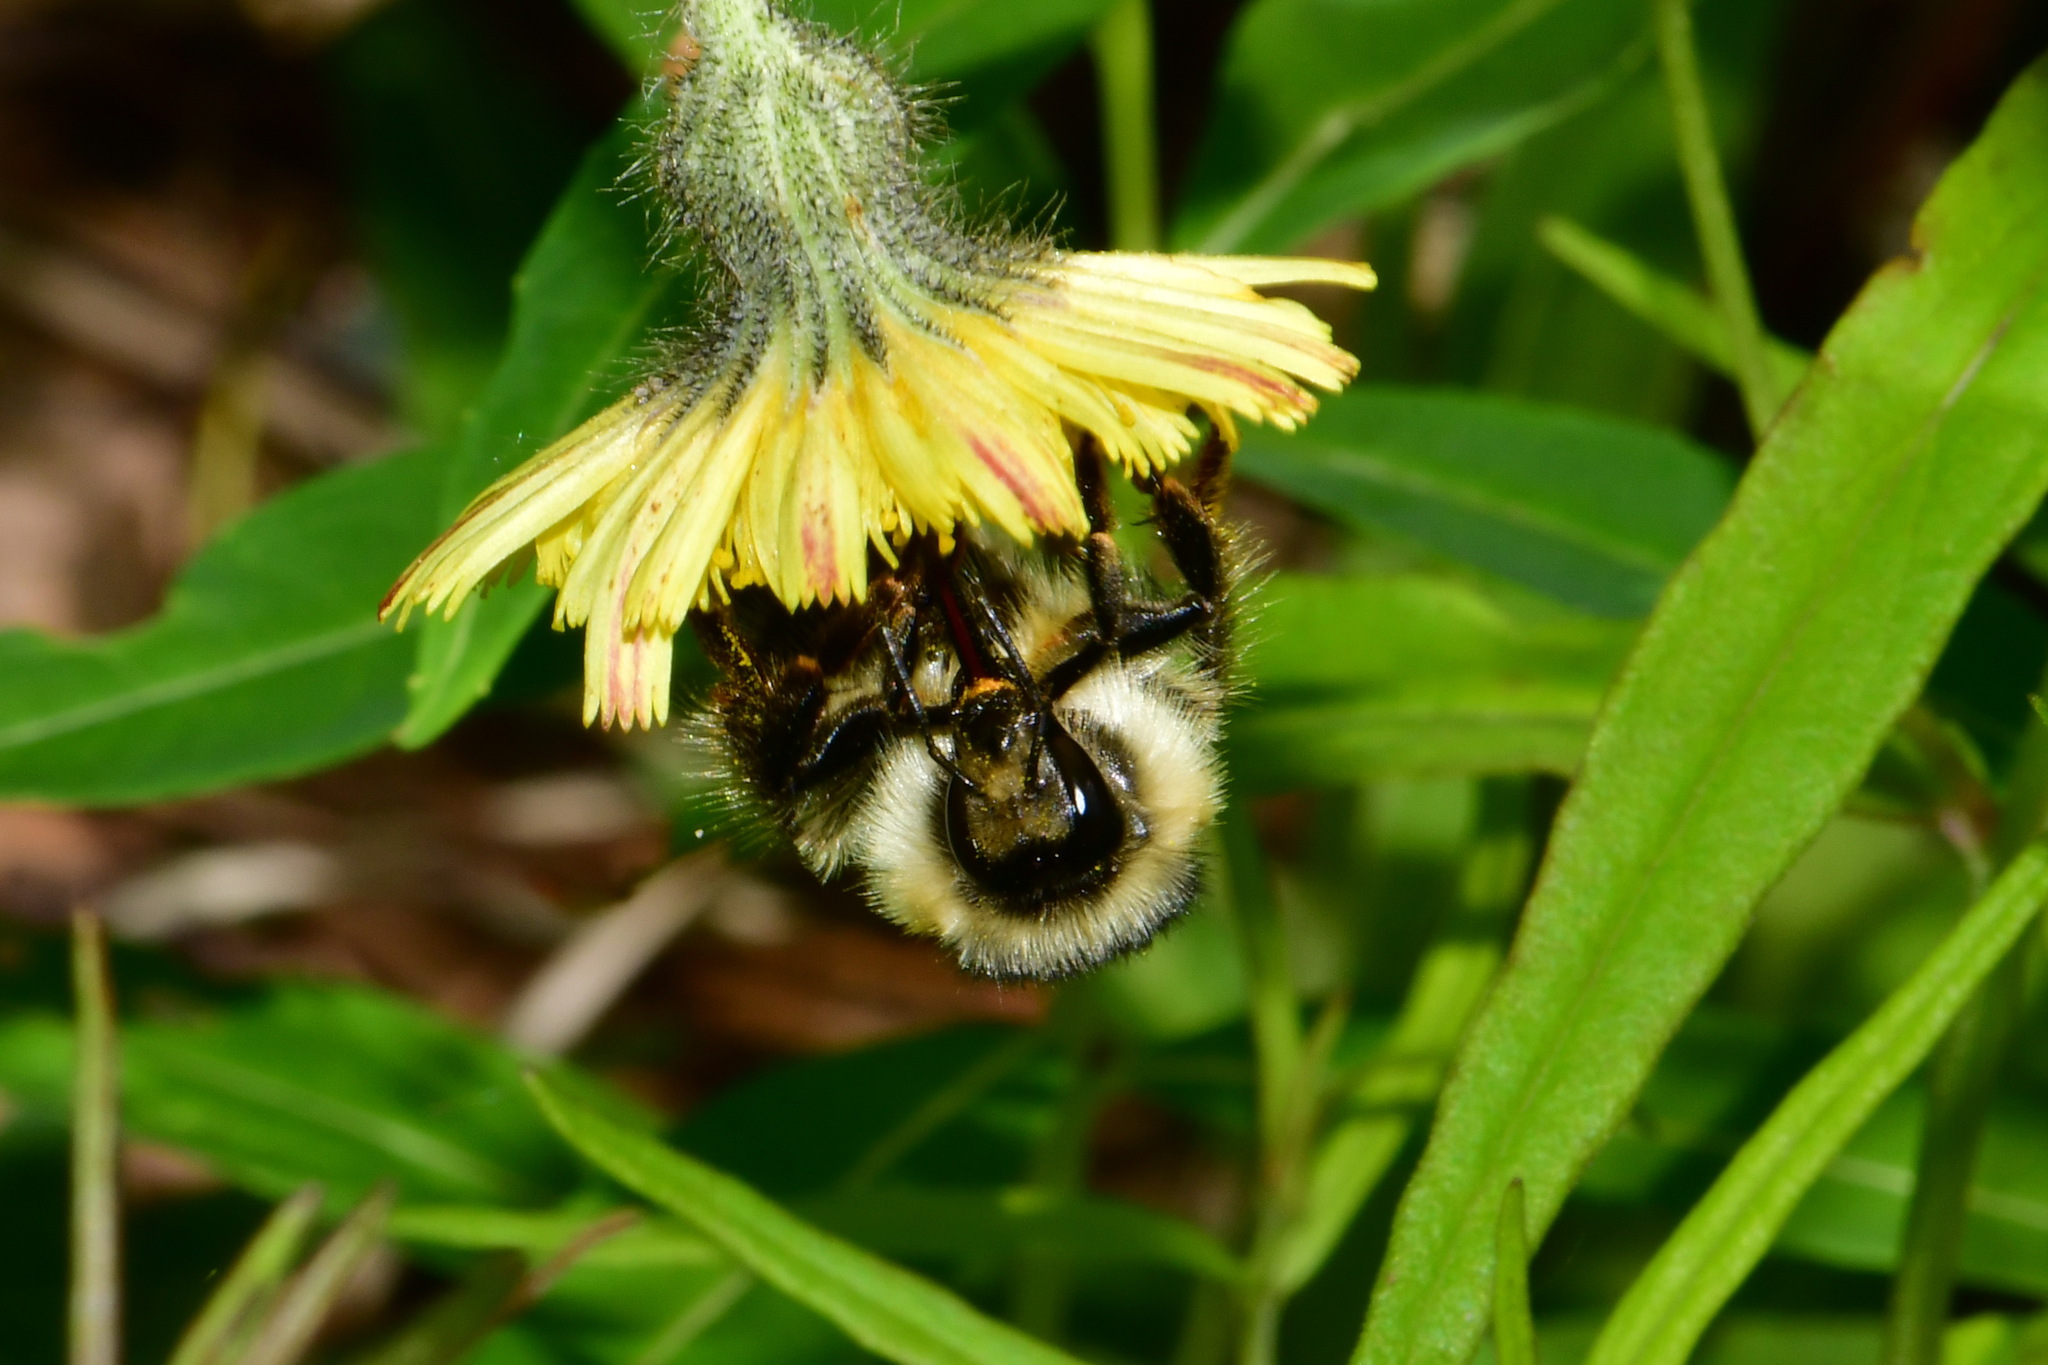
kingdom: Animalia
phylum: Arthropoda
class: Insecta
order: Hymenoptera
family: Apidae
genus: Bombus
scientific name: Bombus sylvarum
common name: Shrill carder bee
